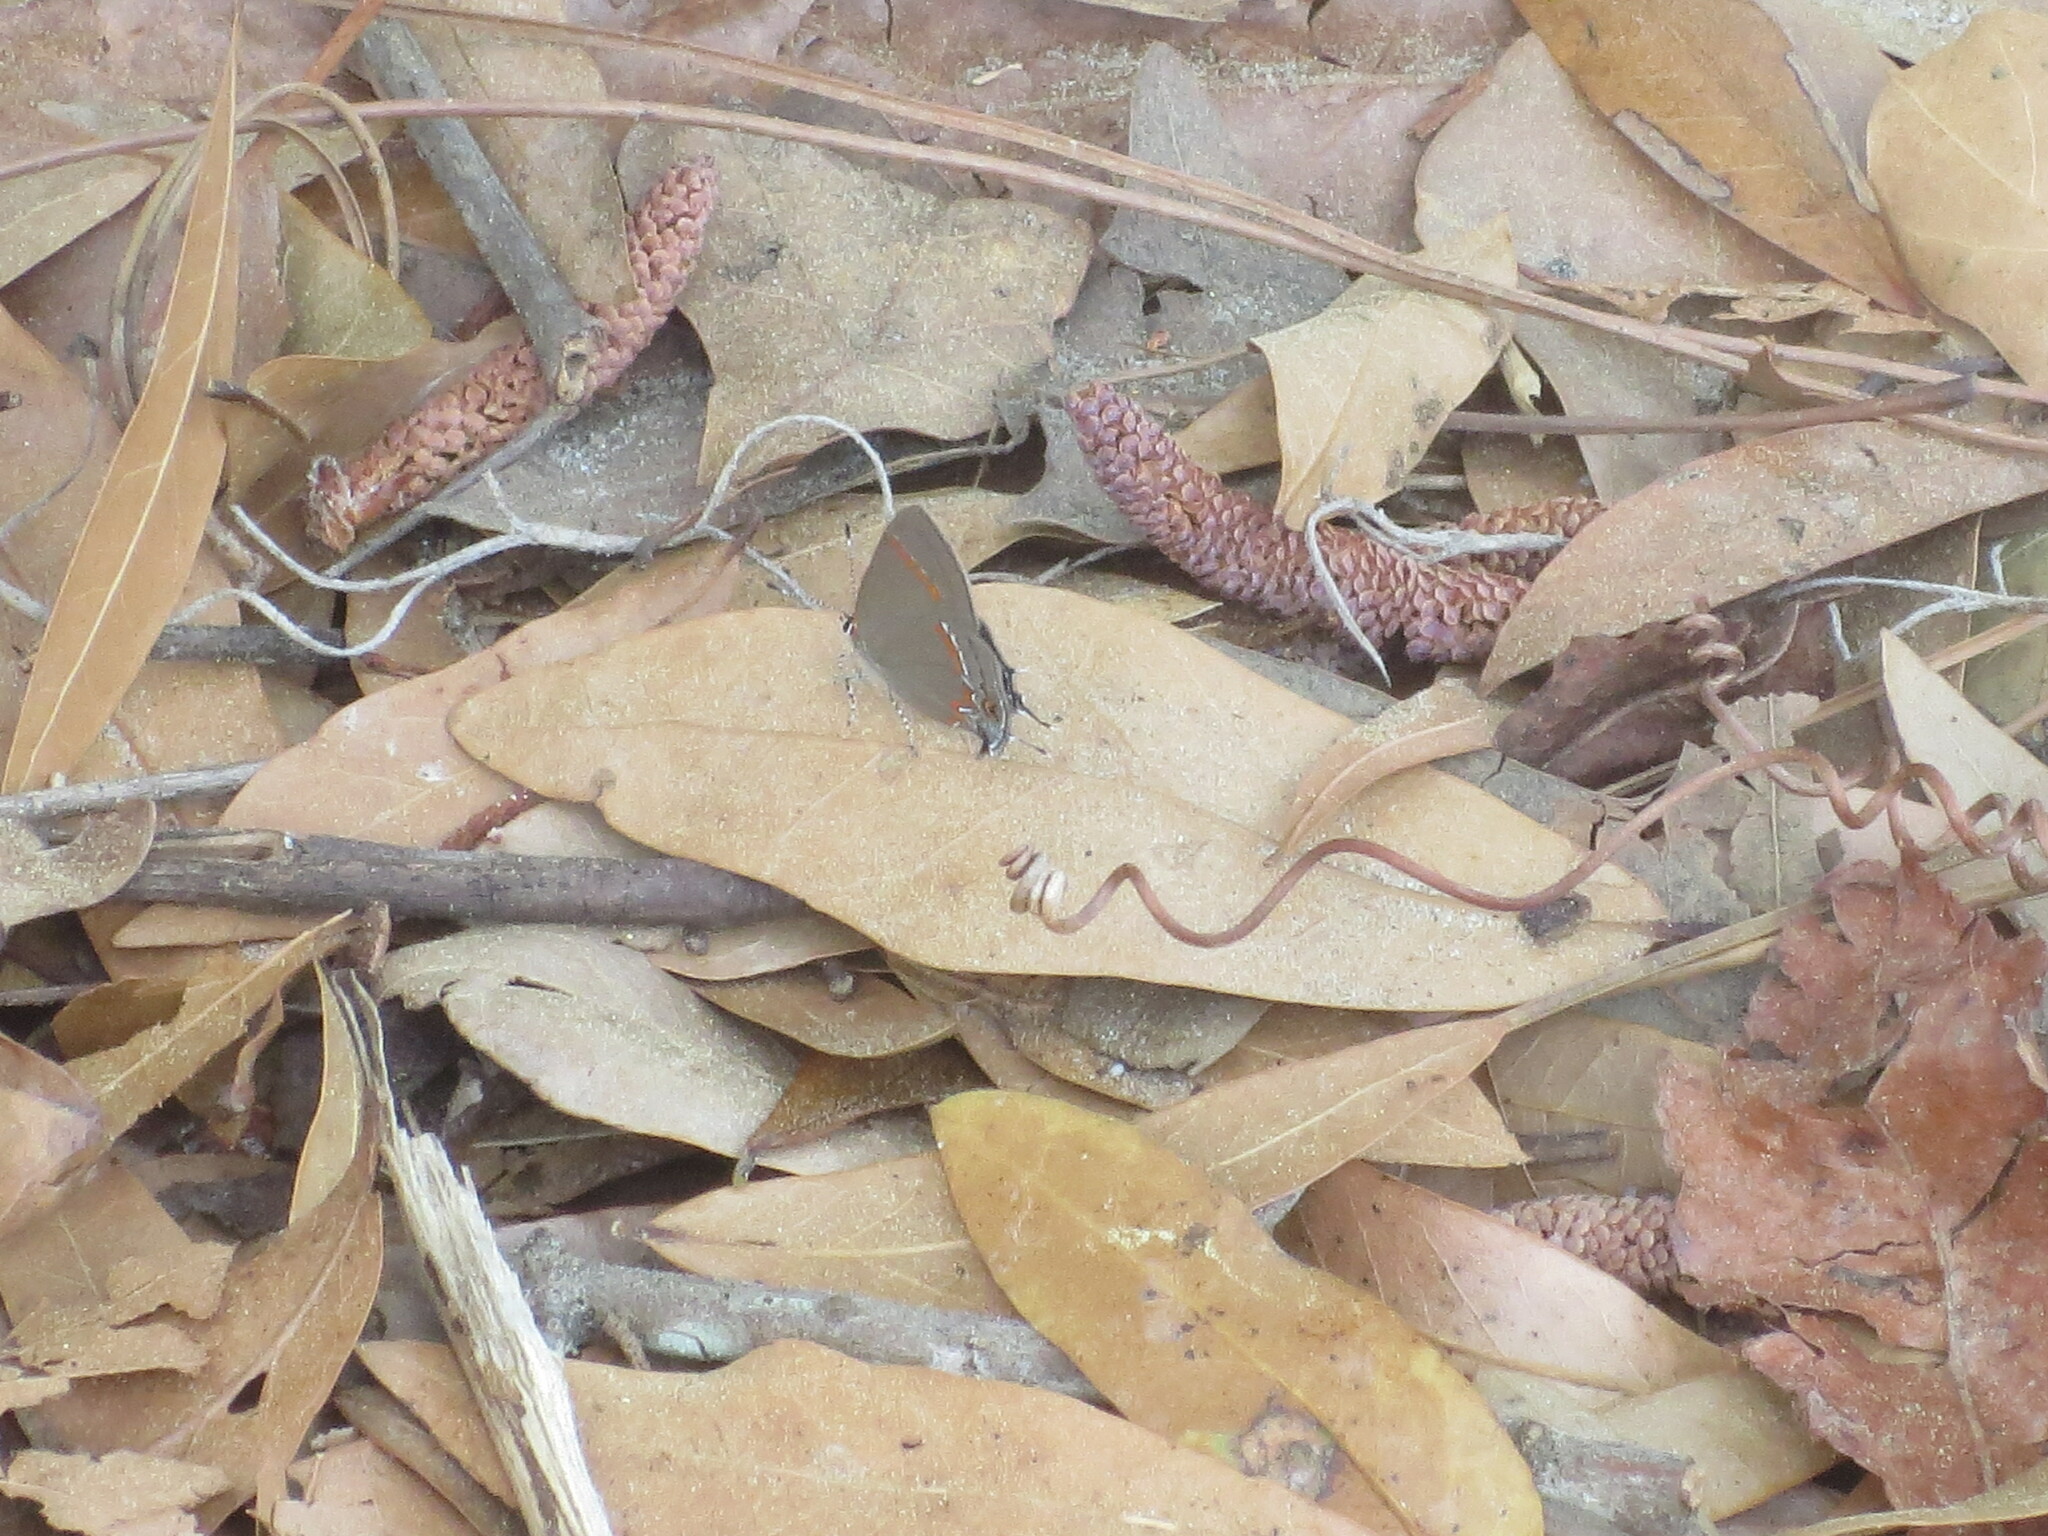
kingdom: Animalia
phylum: Arthropoda
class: Insecta
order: Lepidoptera
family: Lycaenidae
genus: Calycopis
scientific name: Calycopis cecrops
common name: Red-banded hairstreak
